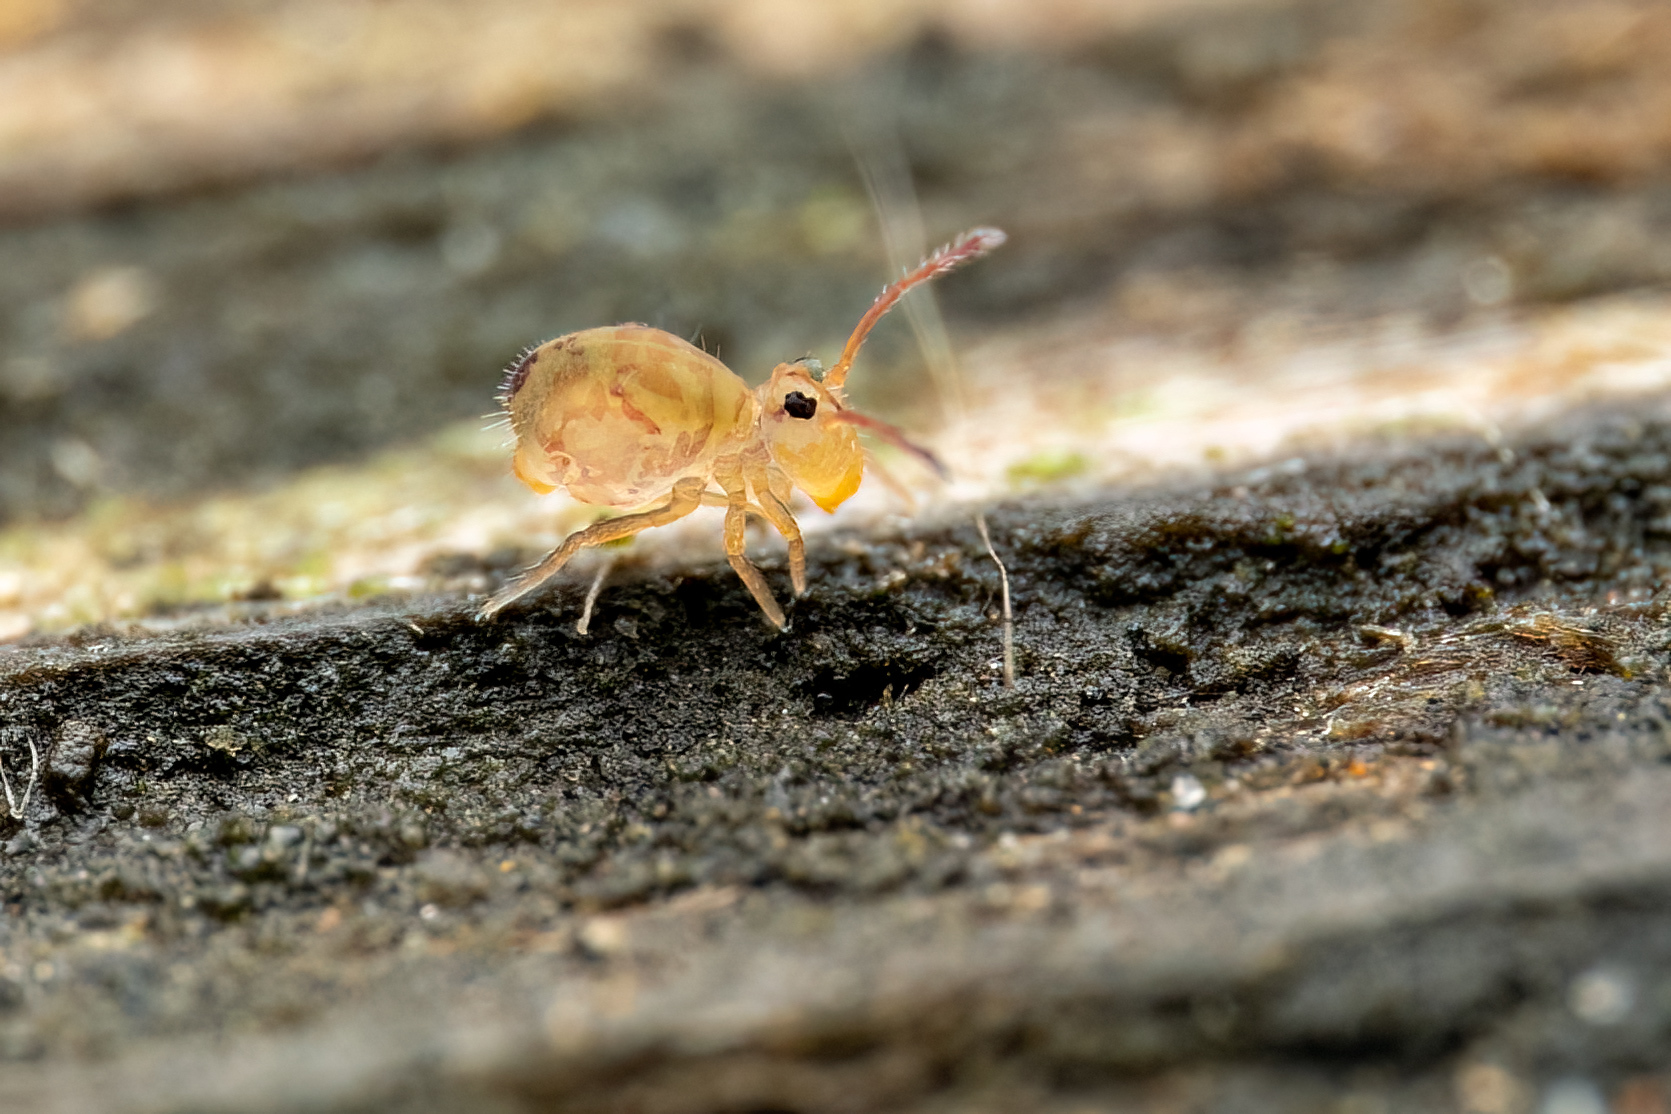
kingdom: Animalia
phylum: Arthropoda
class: Collembola
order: Symphypleona
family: Dicyrtomidae
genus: Dicyrtomina
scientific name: Dicyrtomina minuta
